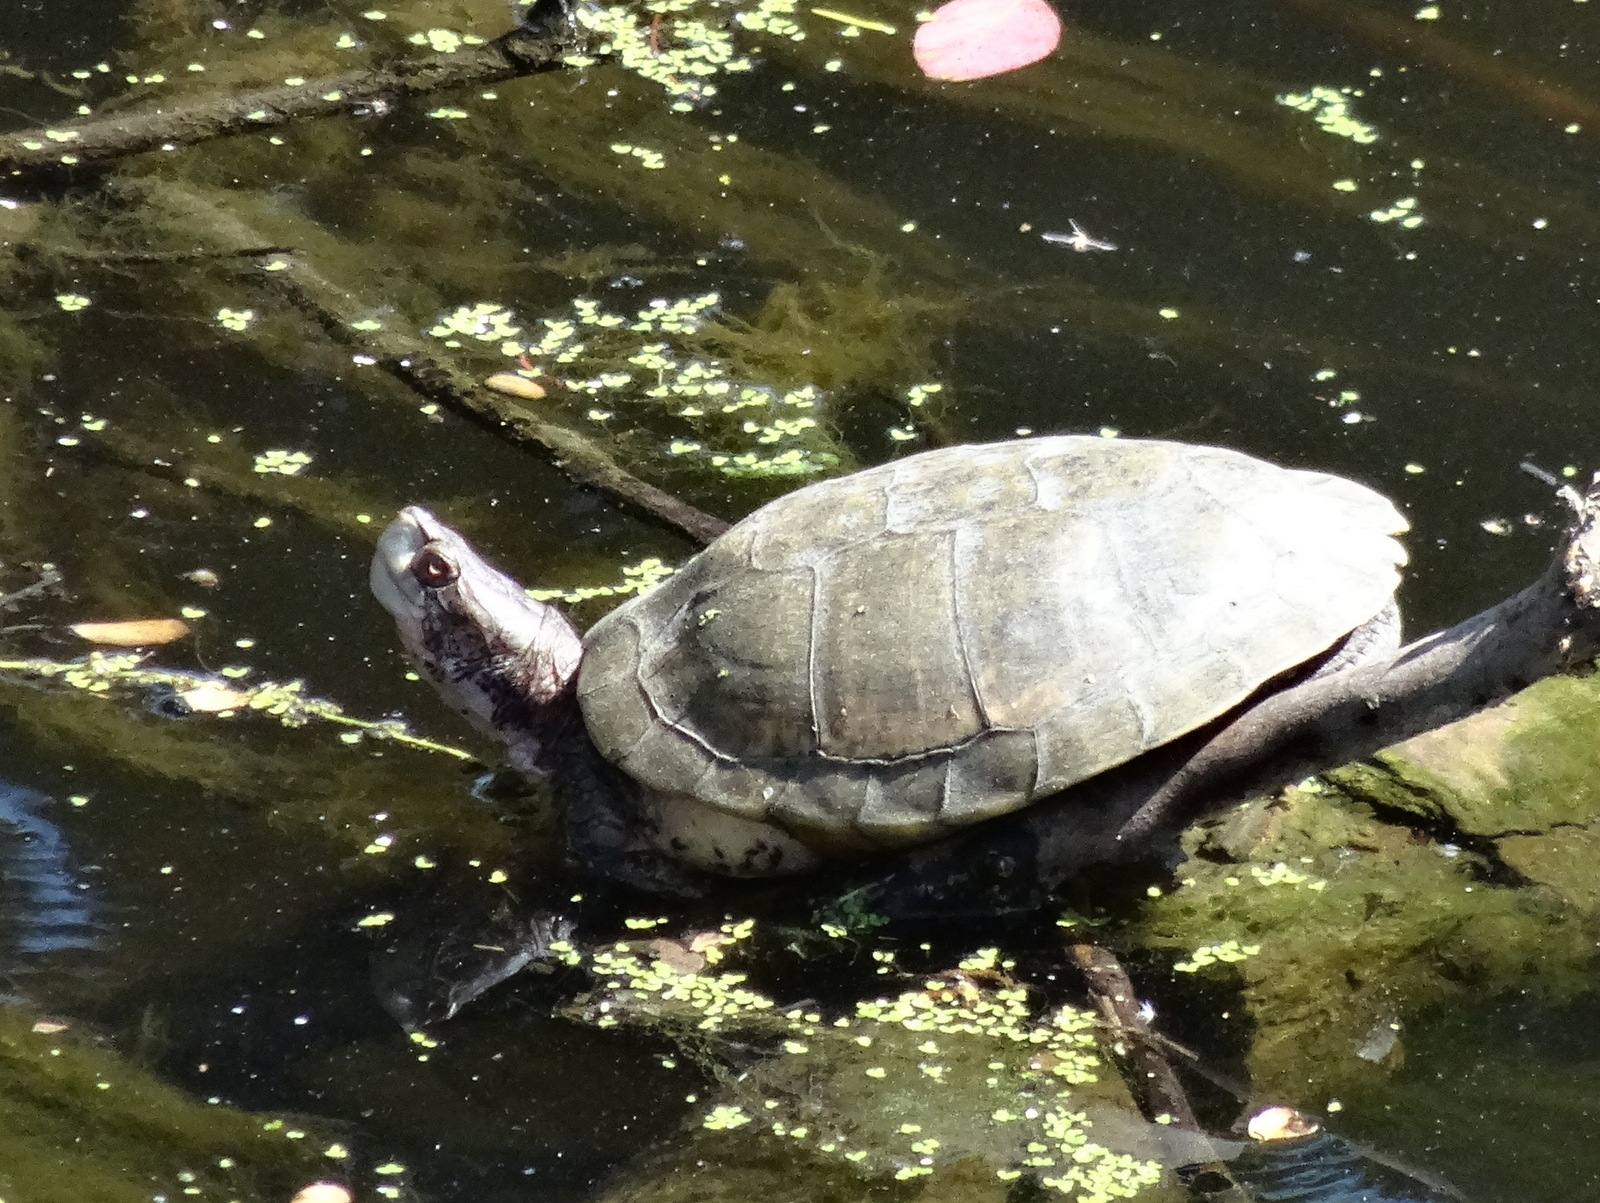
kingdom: Animalia
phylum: Chordata
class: Testudines
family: Emydidae
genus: Actinemys
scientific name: Actinemys marmorata
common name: Western pond turtle
